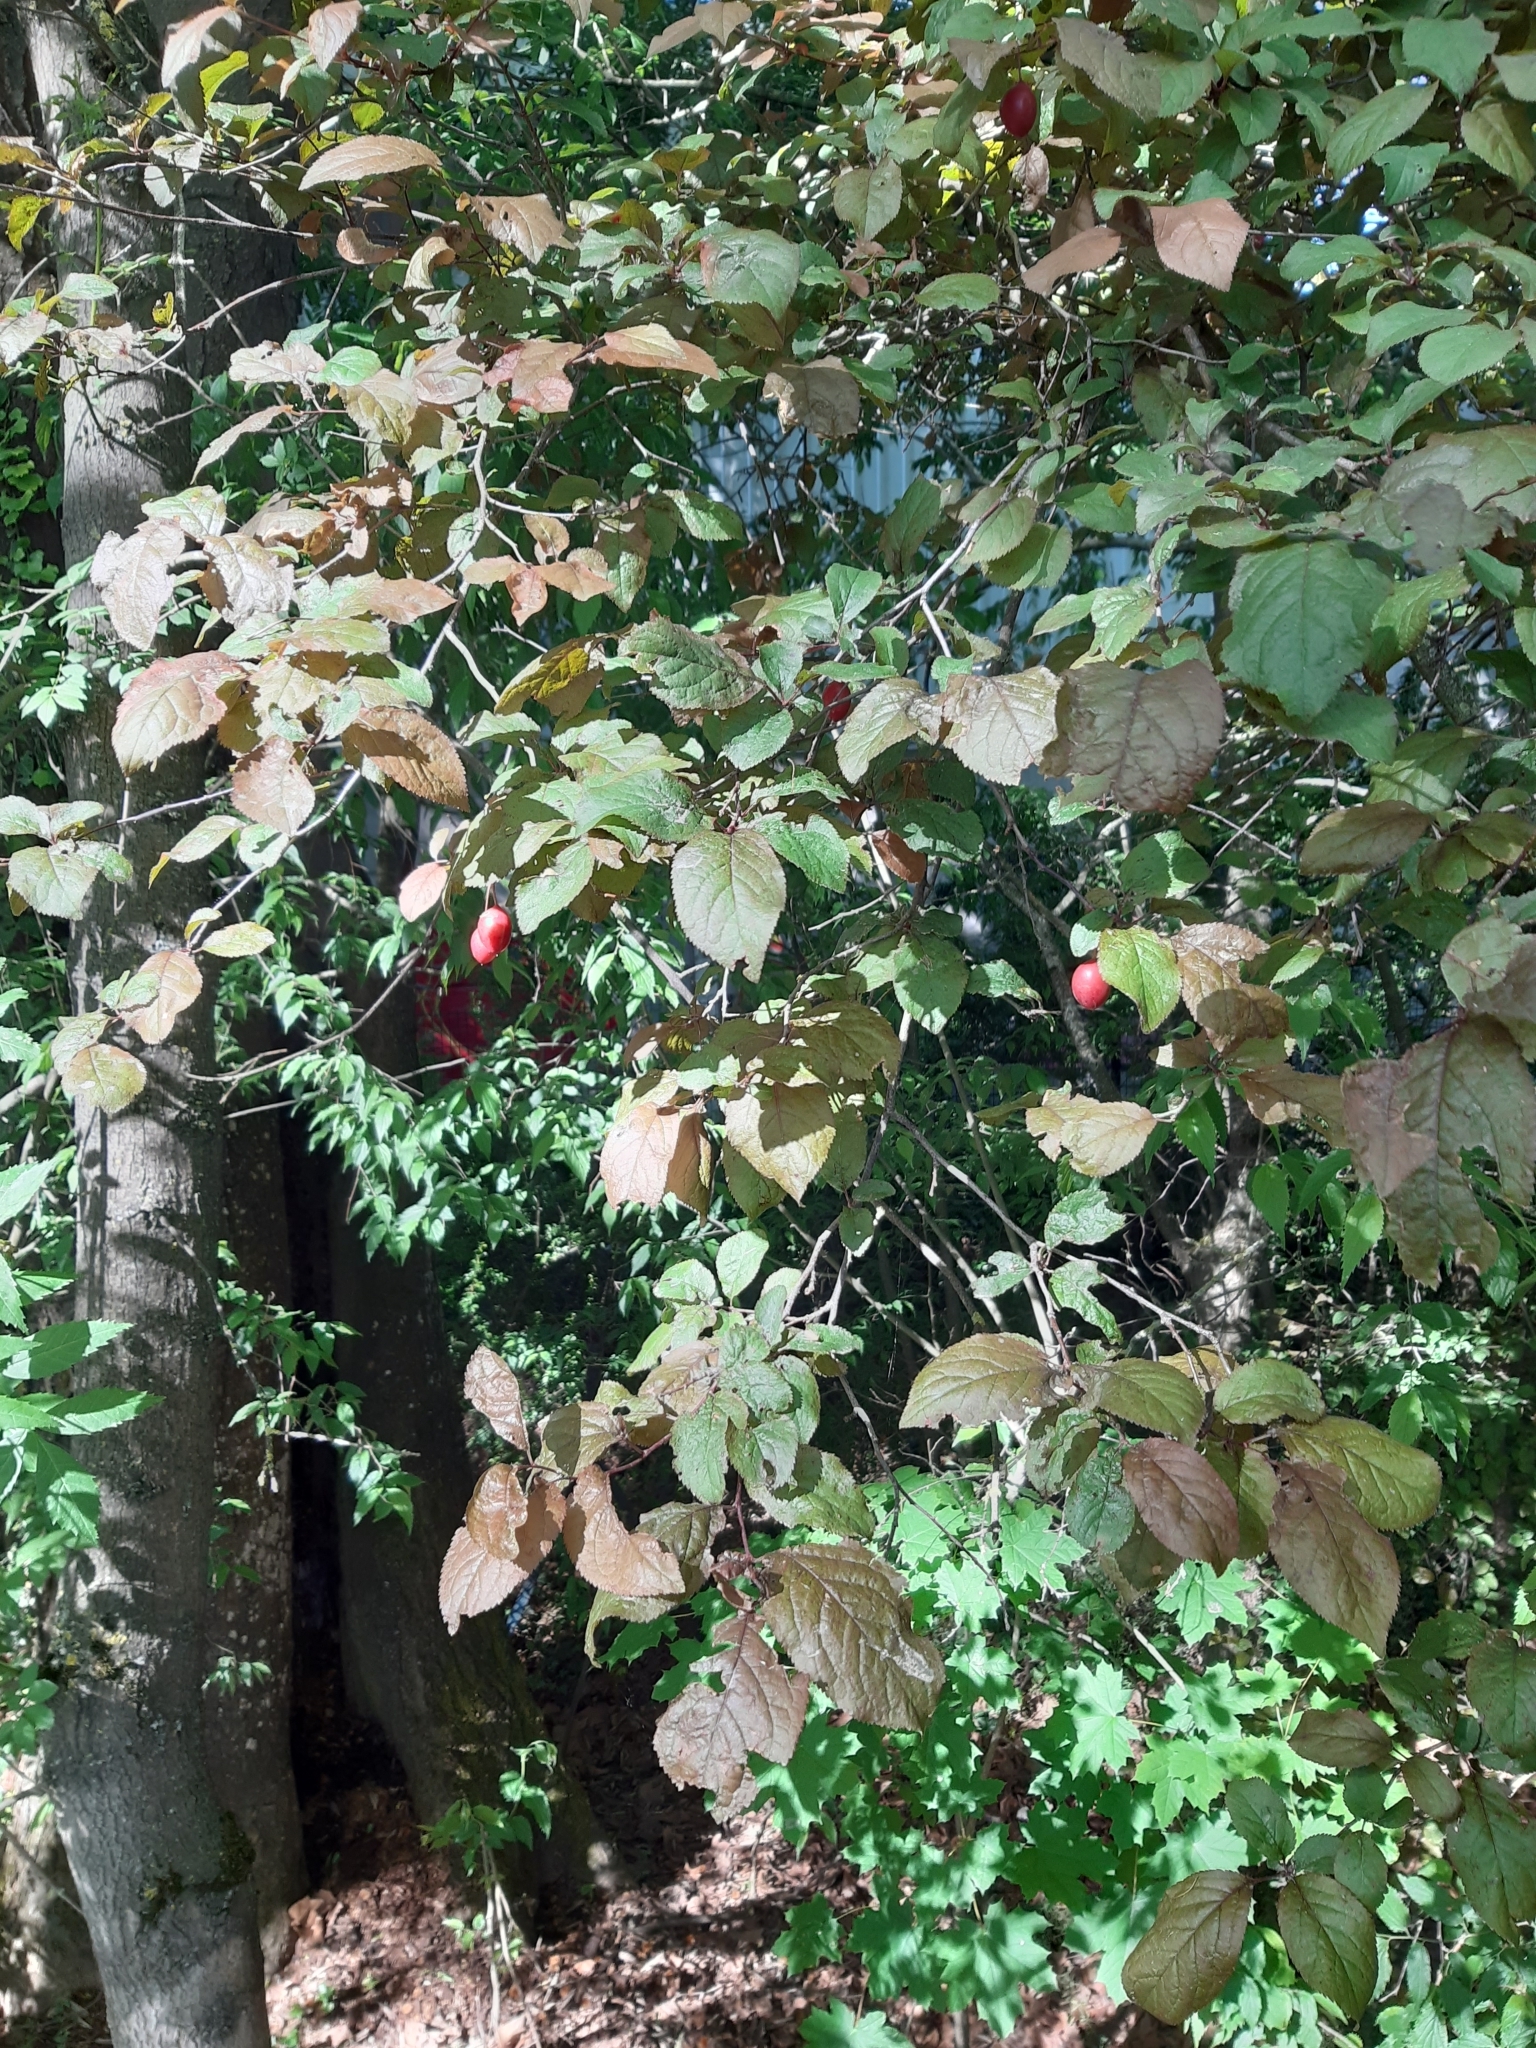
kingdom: Plantae
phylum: Tracheophyta
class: Magnoliopsida
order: Rosales
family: Rosaceae
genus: Prunus
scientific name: Prunus cerasifera
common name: Cherry plum
